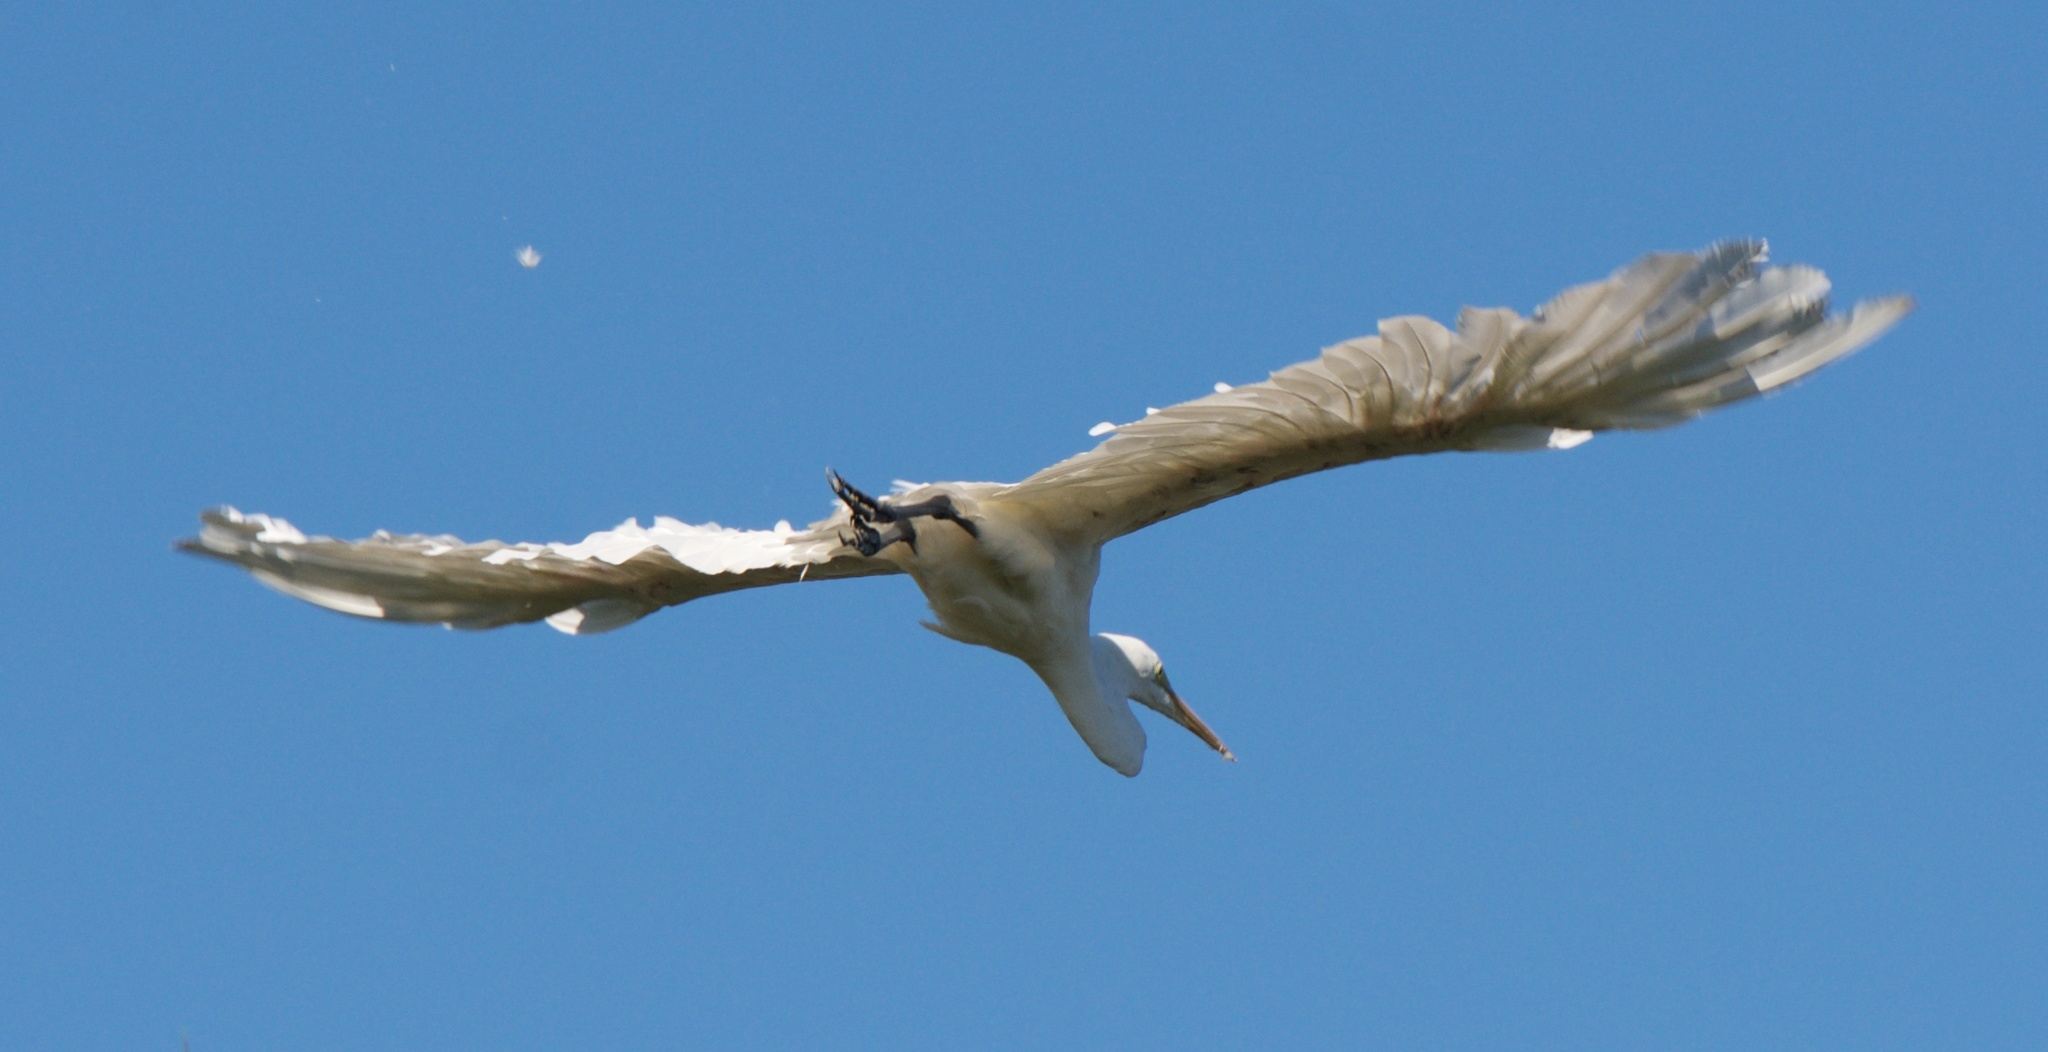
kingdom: Animalia
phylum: Chordata
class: Aves
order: Pelecaniformes
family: Ardeidae
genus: Ardea
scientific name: Ardea alba
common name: Great egret
